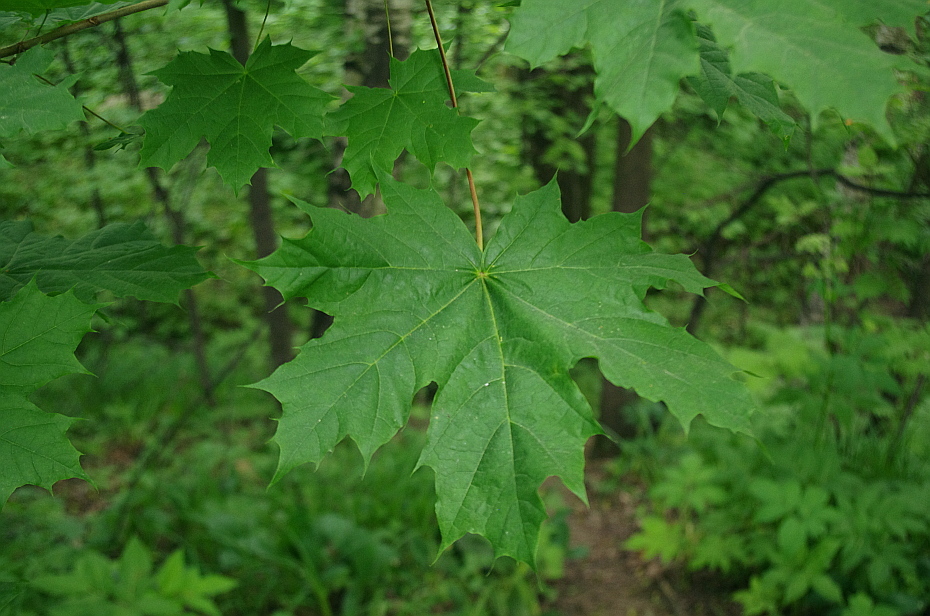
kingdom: Plantae
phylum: Tracheophyta
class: Magnoliopsida
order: Sapindales
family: Sapindaceae
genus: Acer
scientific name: Acer platanoides
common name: Norway maple
